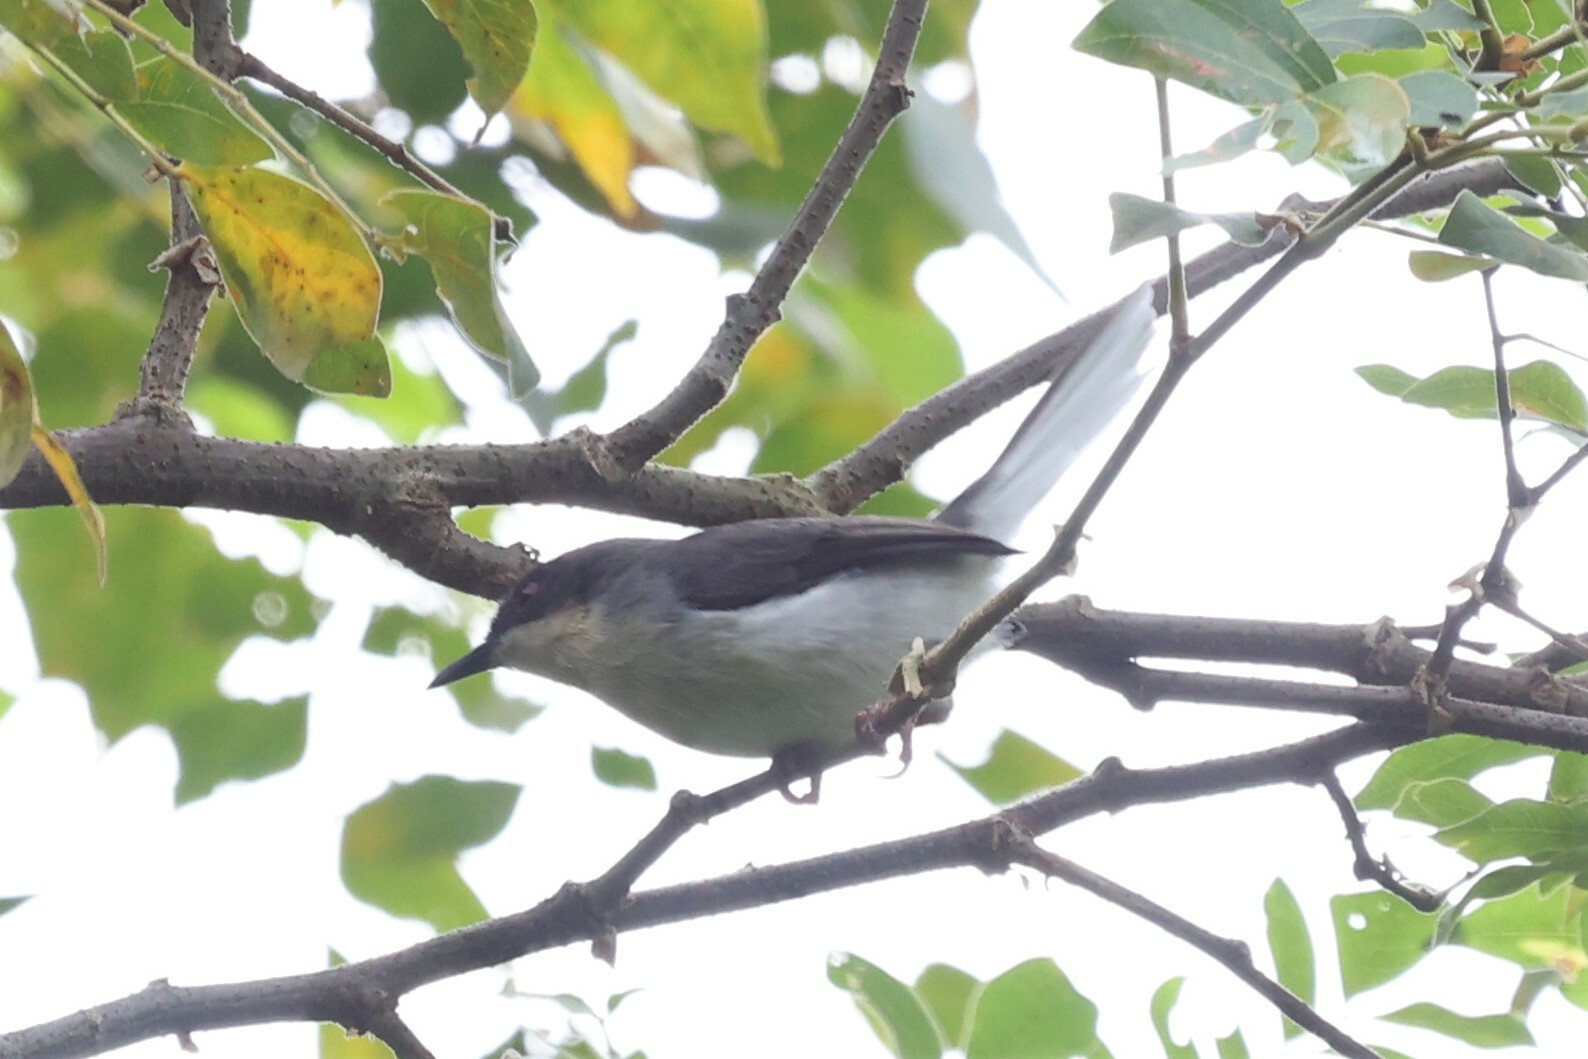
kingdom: Animalia
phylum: Chordata
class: Aves
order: Passeriformes
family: Cisticolidae
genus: Apalis
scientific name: Apalis rufogularis
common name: Buff-throated apalis
